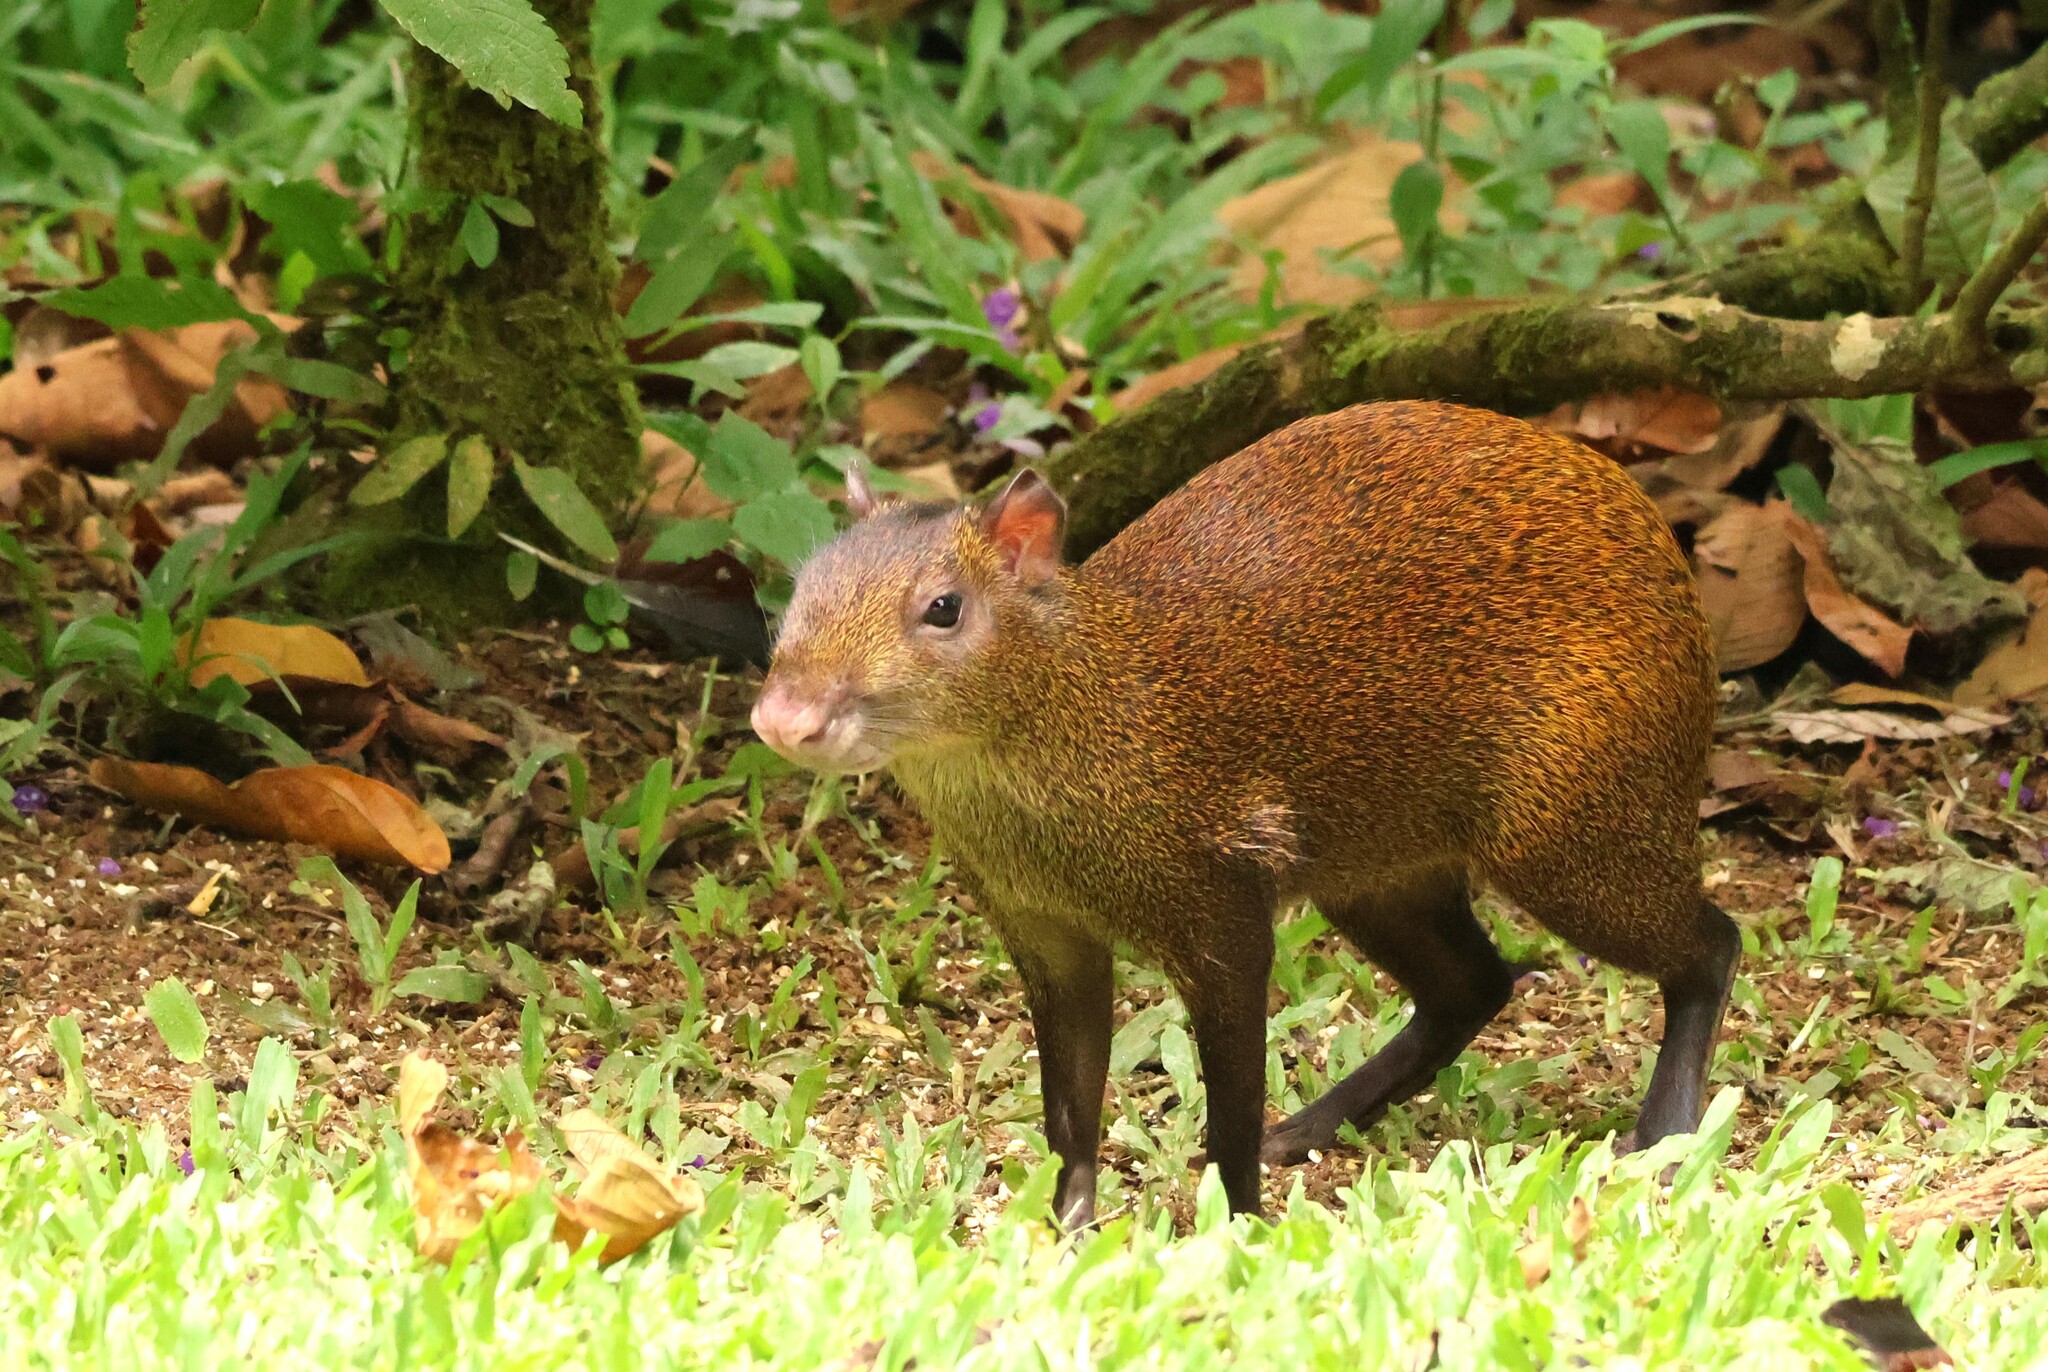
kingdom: Animalia
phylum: Chordata
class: Mammalia
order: Rodentia
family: Dasyproctidae
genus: Dasyprocta
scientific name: Dasyprocta punctata
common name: Central american agouti
